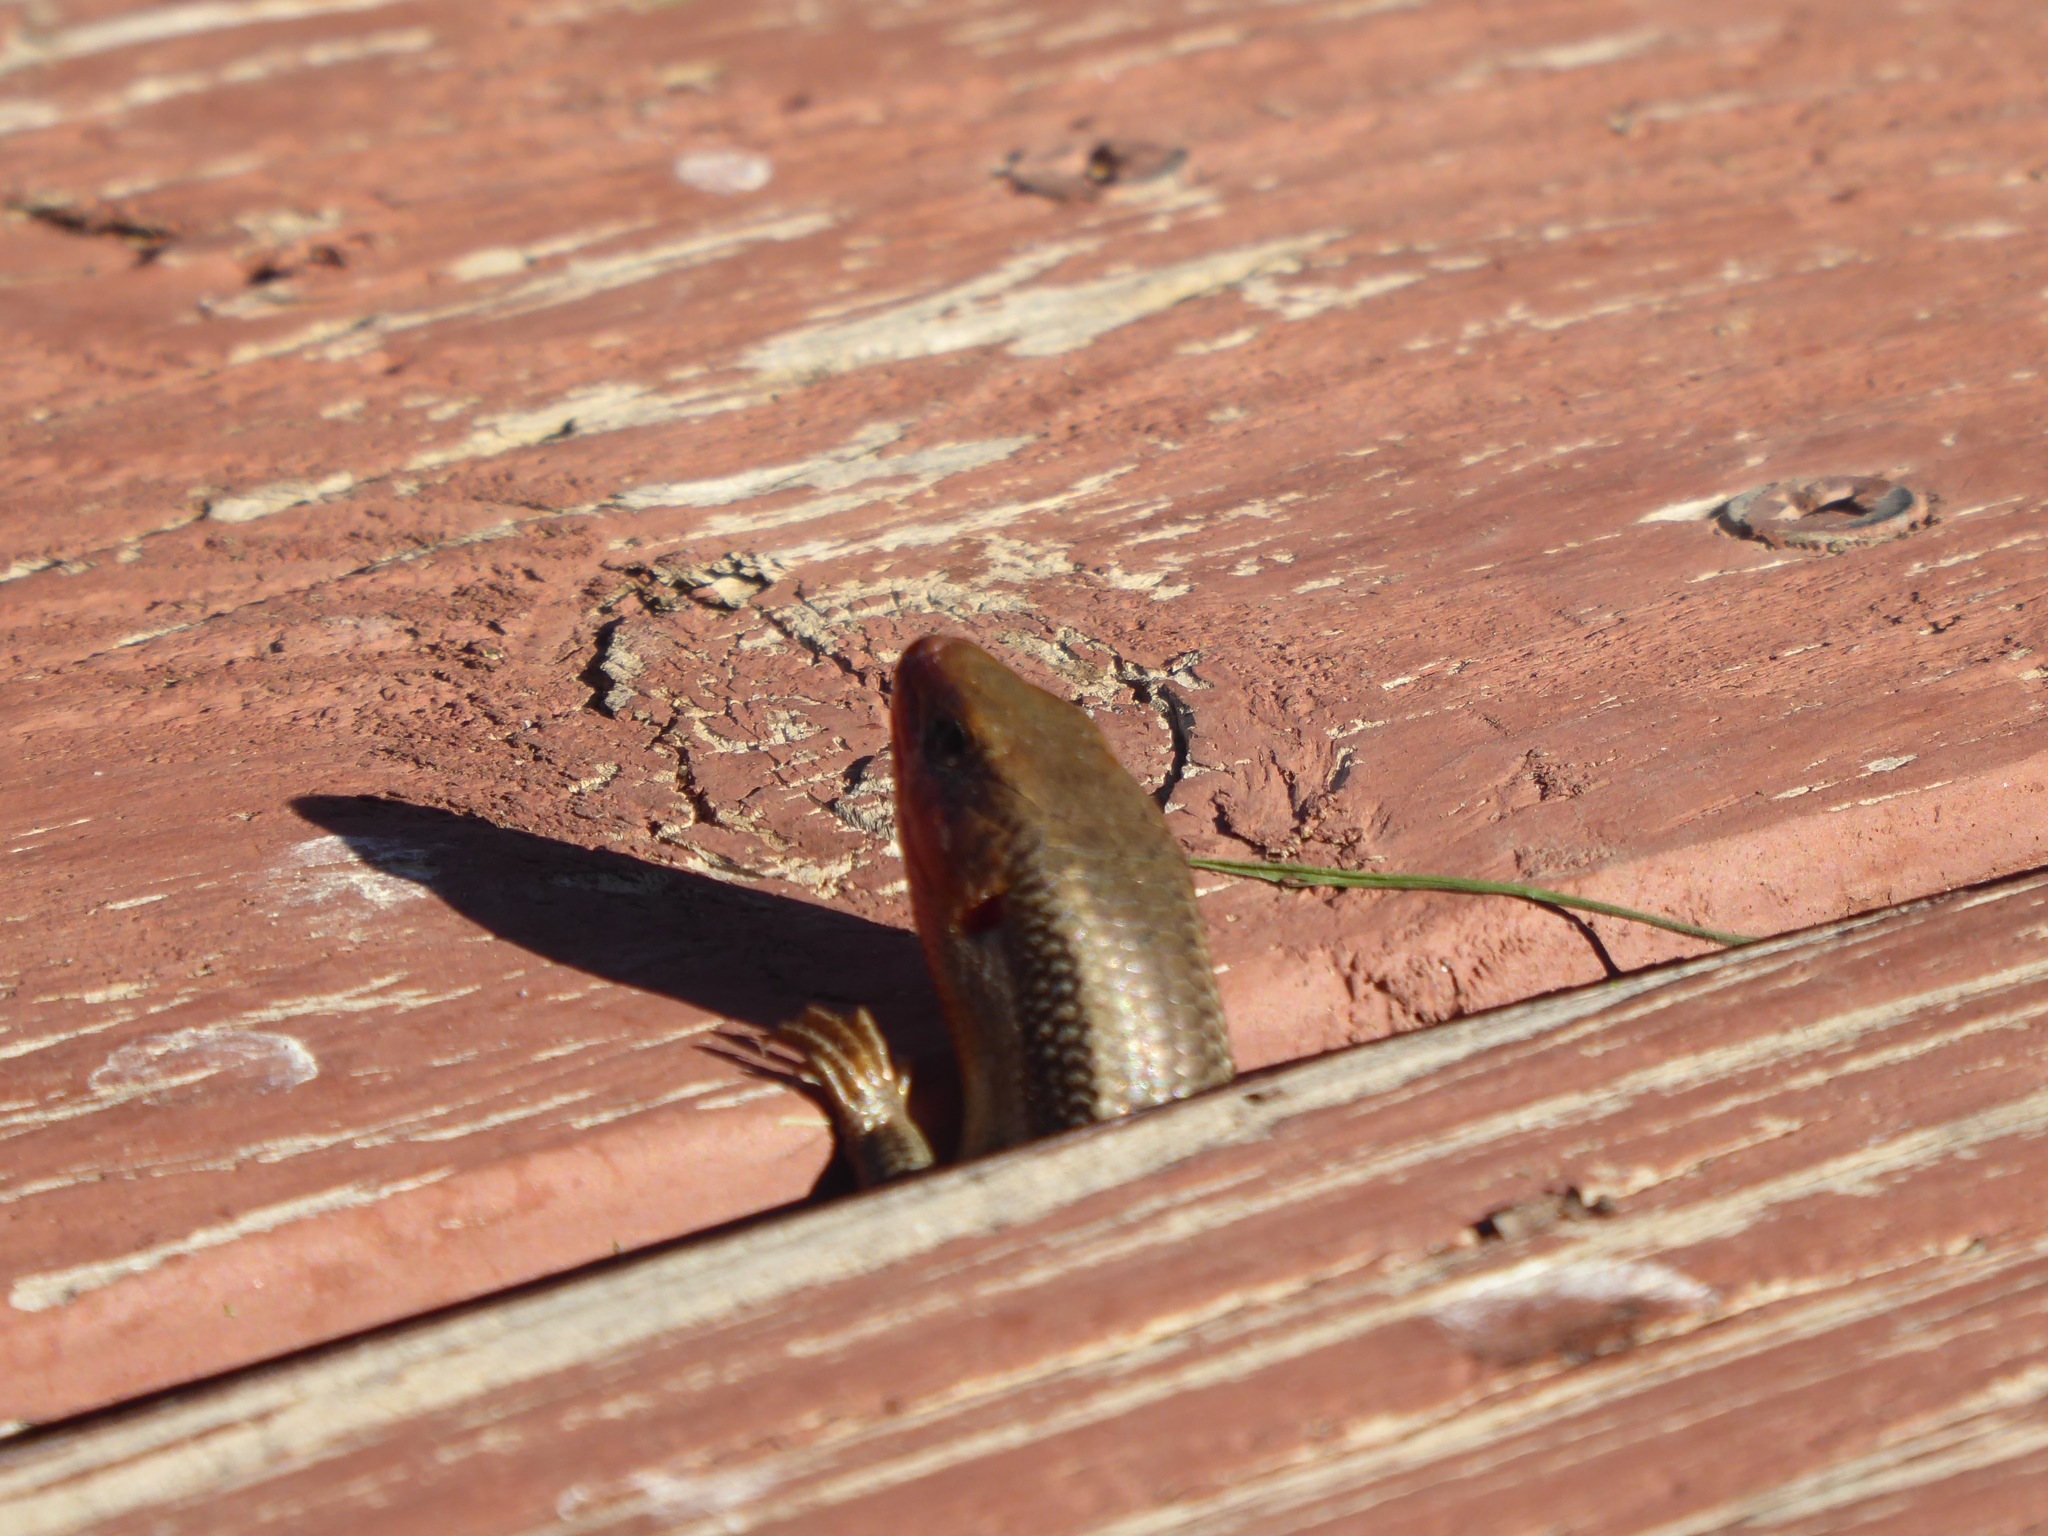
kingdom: Animalia
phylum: Chordata
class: Squamata
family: Scincidae
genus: Plestiodon
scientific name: Plestiodon skiltonianus
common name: Coronado island skink [interparietalis]
